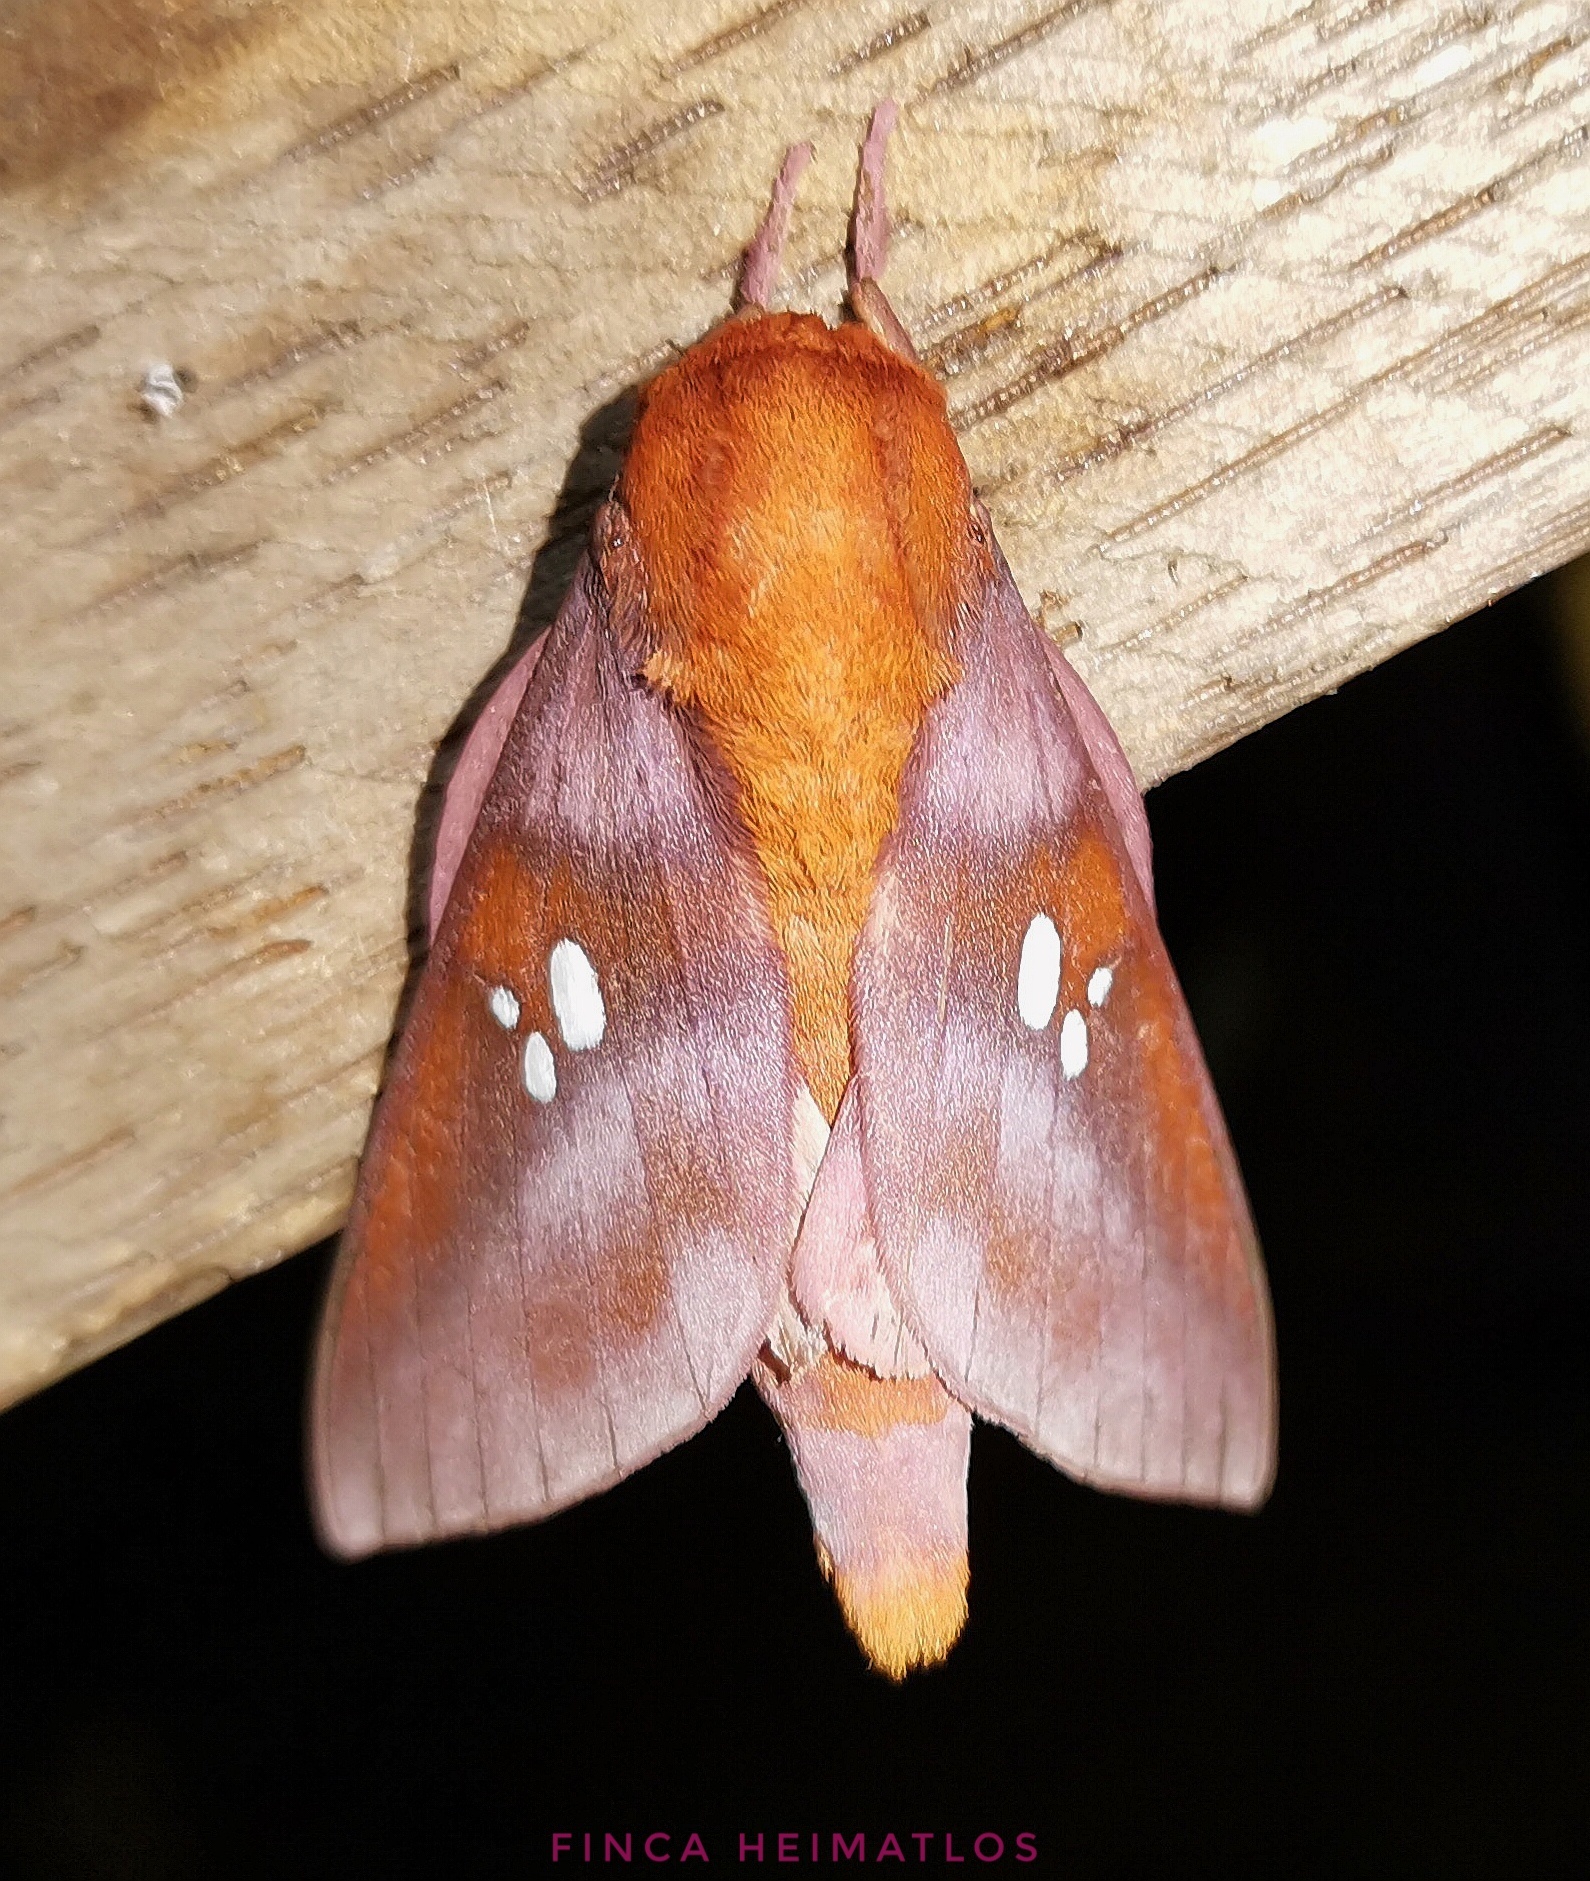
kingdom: Animalia
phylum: Arthropoda
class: Insecta
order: Lepidoptera
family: Saturniidae
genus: Adelowalkeria
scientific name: Adelowalkeria kitchingi
